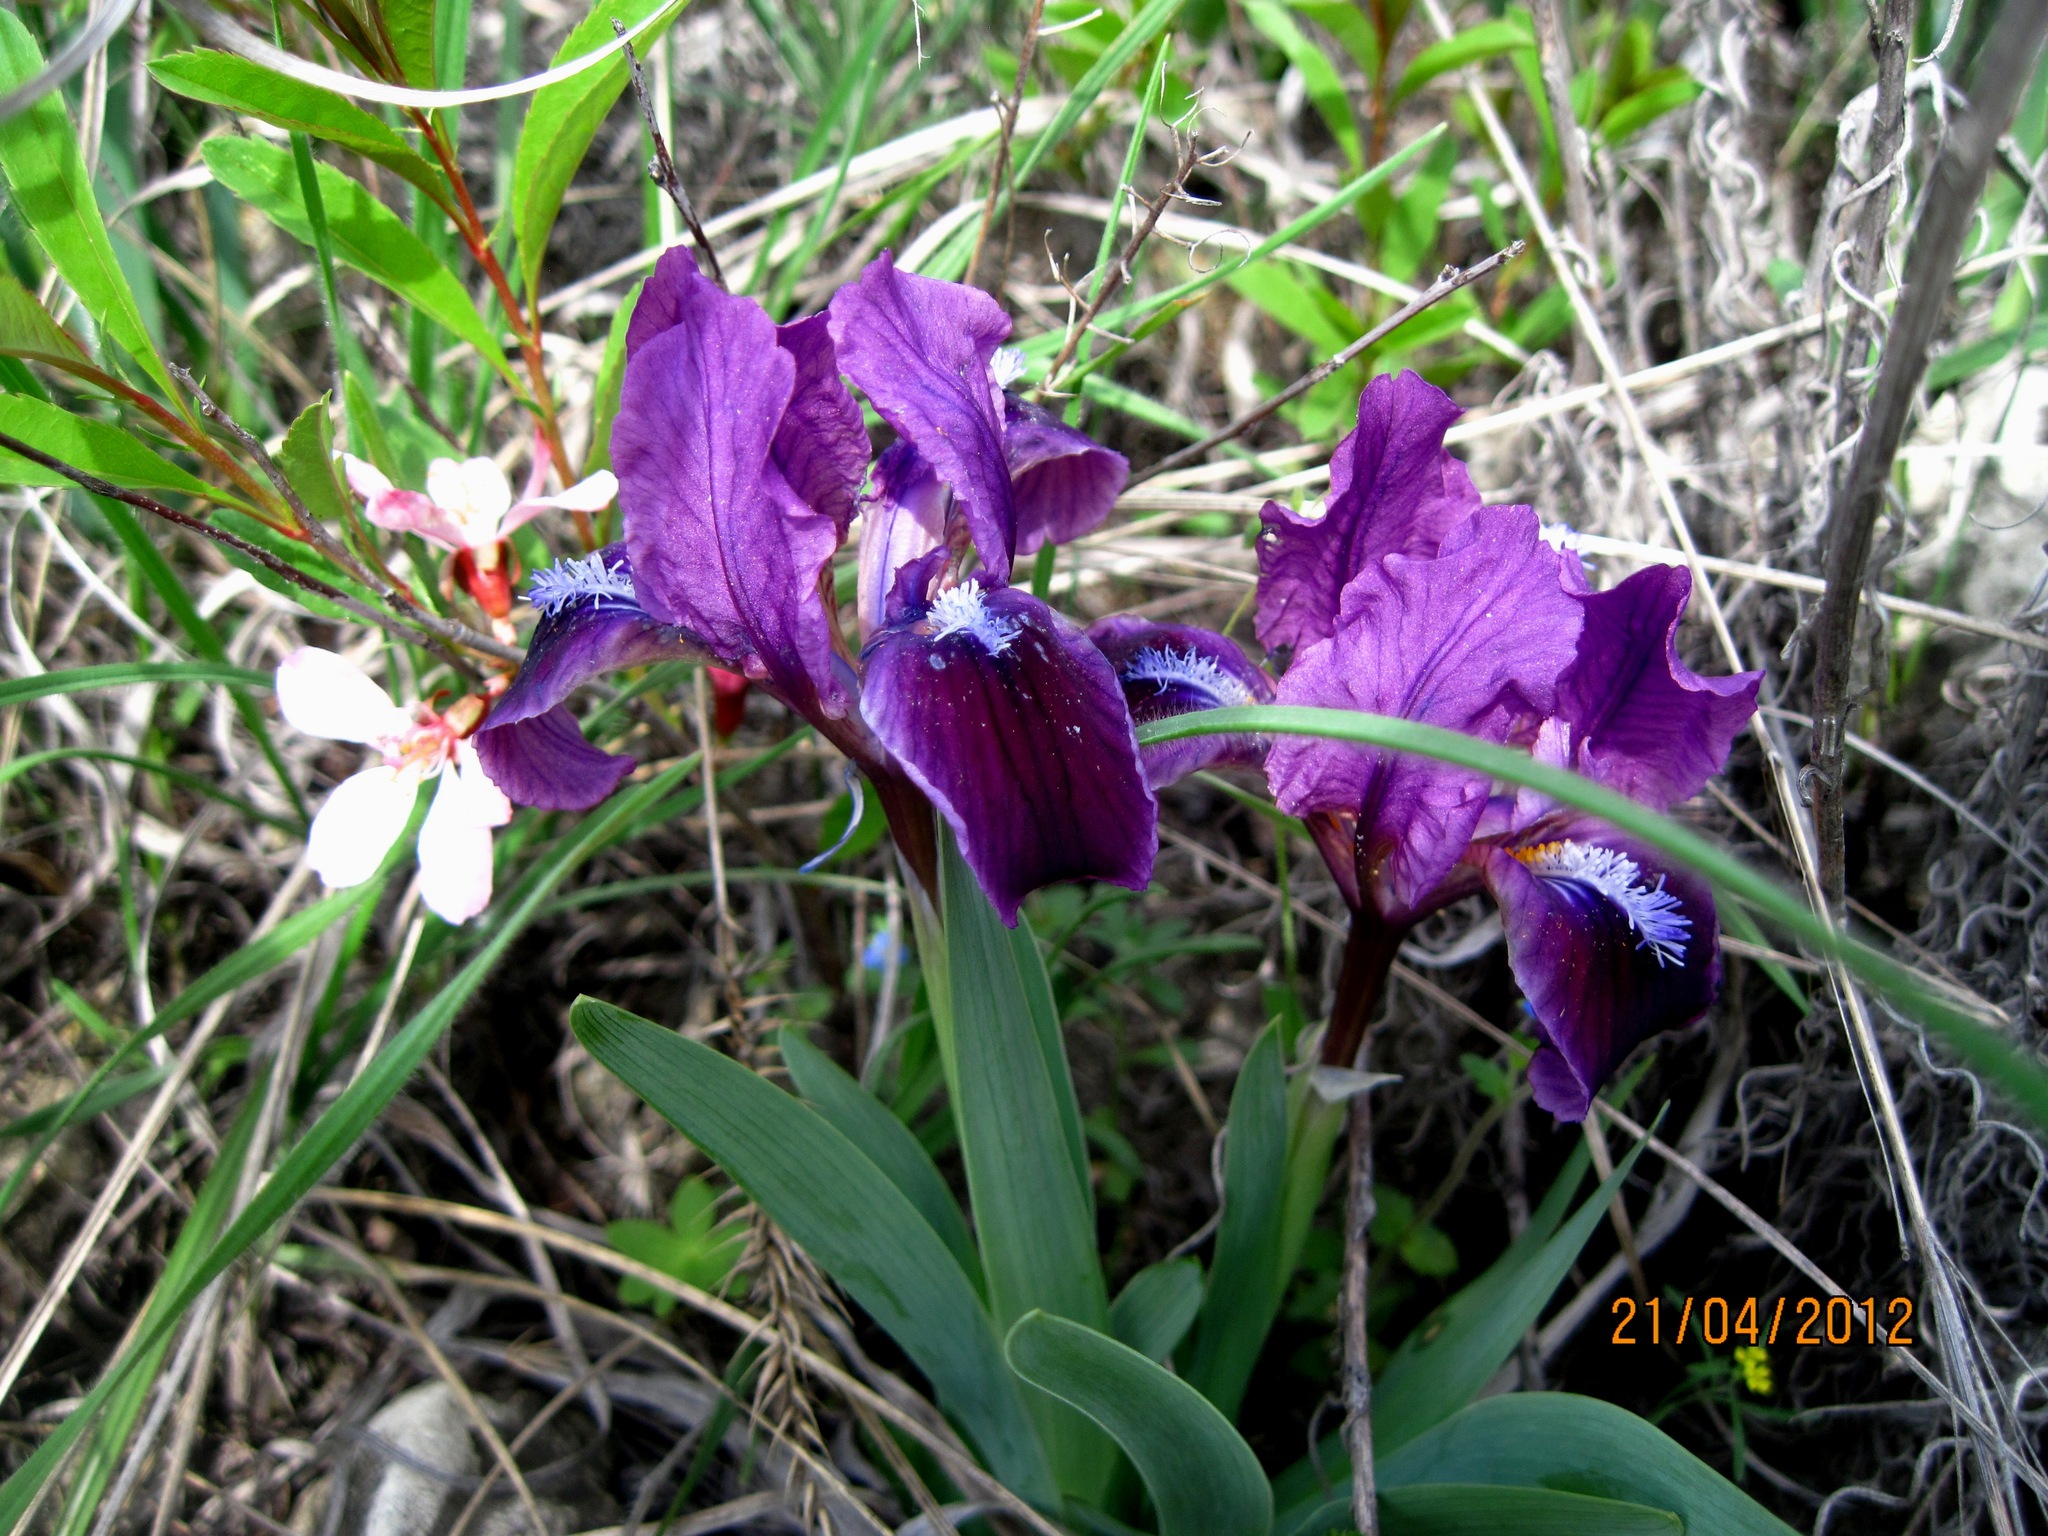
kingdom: Plantae
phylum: Tracheophyta
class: Liliopsida
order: Asparagales
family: Iridaceae
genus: Iris
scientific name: Iris pumila
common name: Dwarf iris
